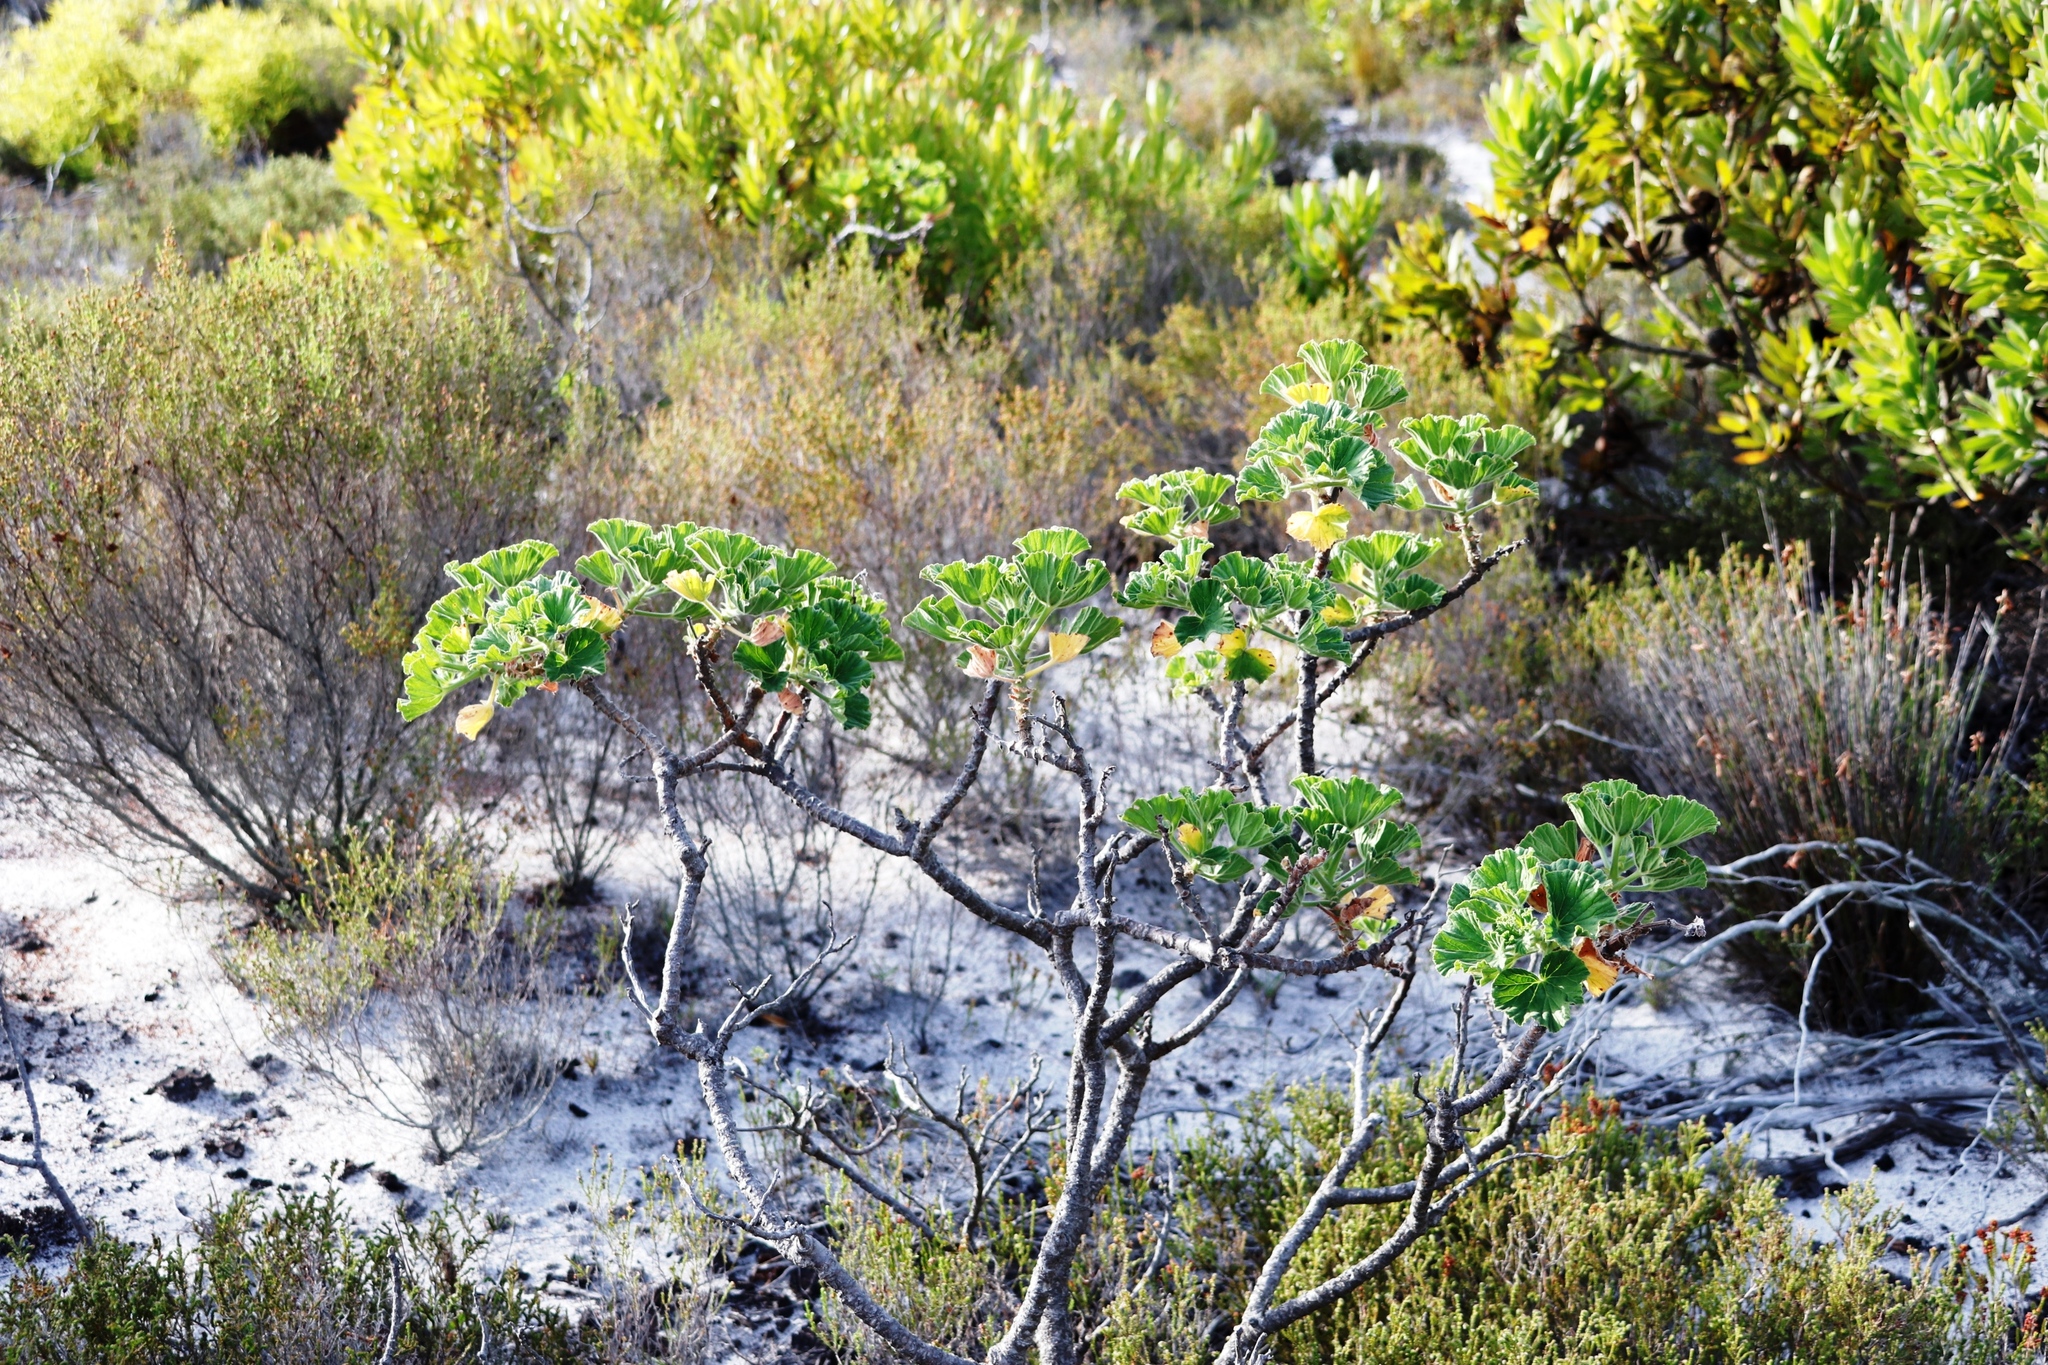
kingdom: Plantae
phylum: Tracheophyta
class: Magnoliopsida
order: Geraniales
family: Geraniaceae
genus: Pelargonium
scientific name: Pelargonium cucullatum
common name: Tree pelargonium
